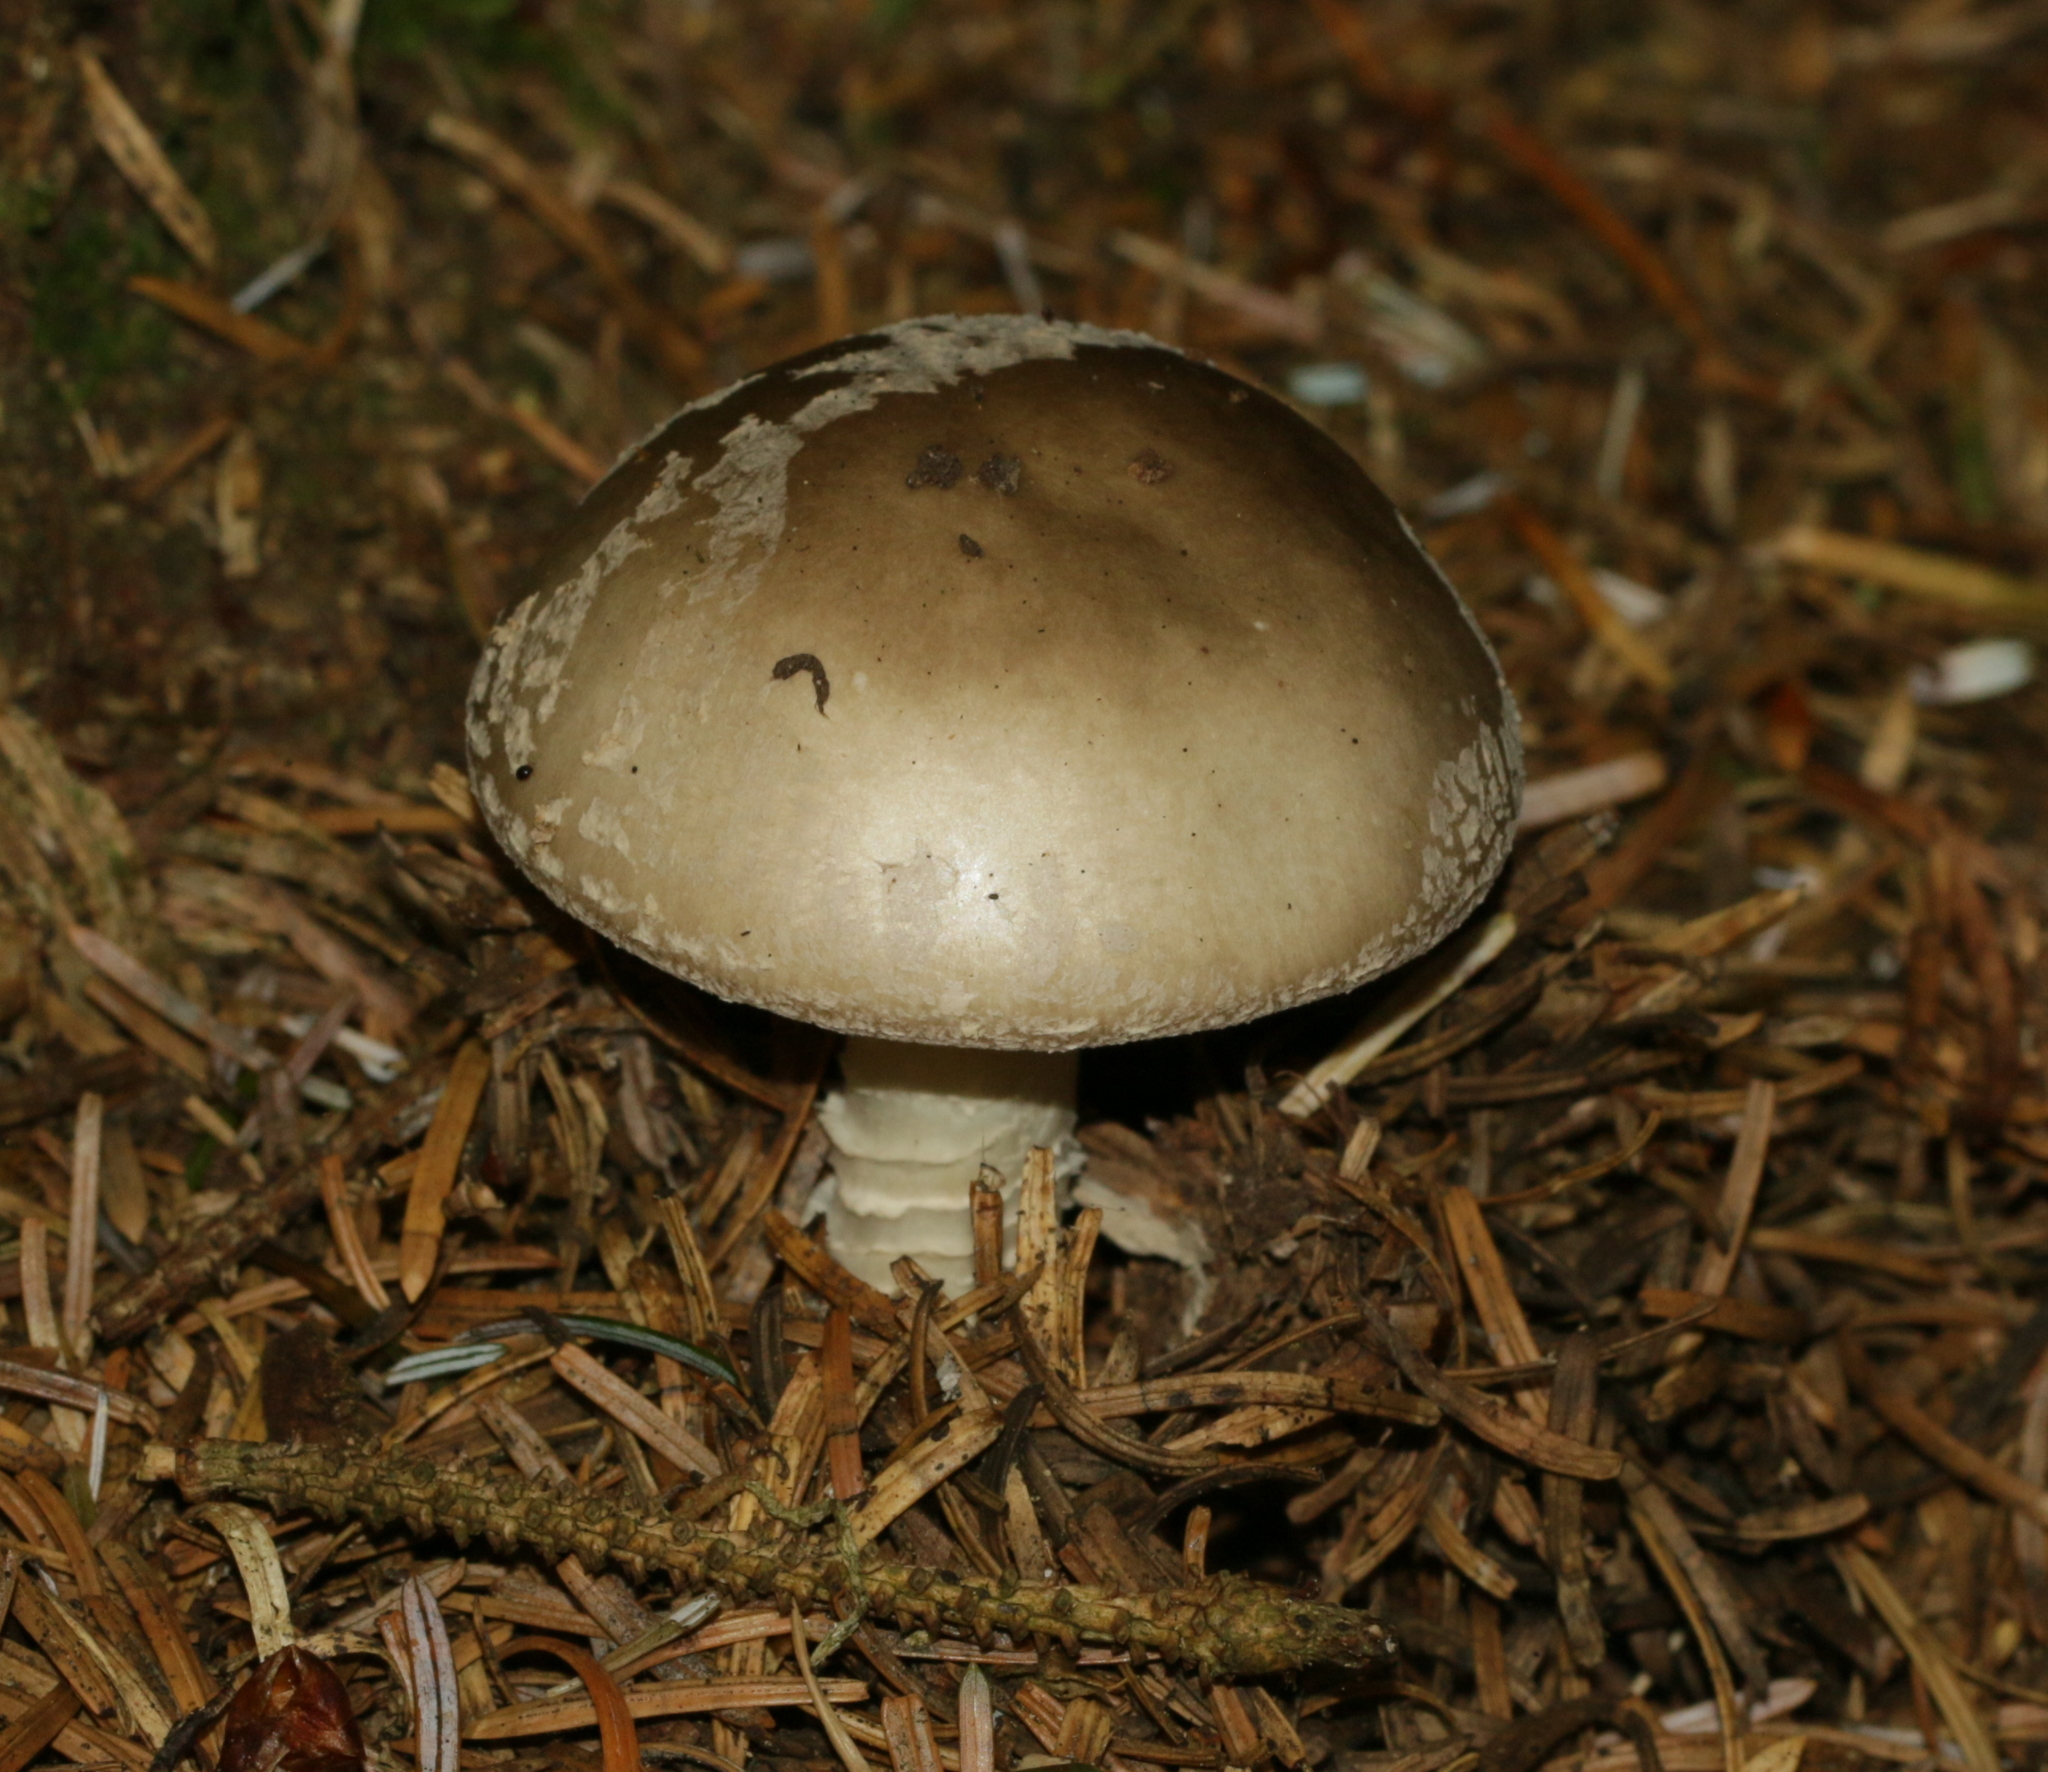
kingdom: Fungi
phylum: Basidiomycota
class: Agaricomycetes
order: Agaricales
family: Amanitaceae
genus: Amanita
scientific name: Amanita excelsa
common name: European false blusher
